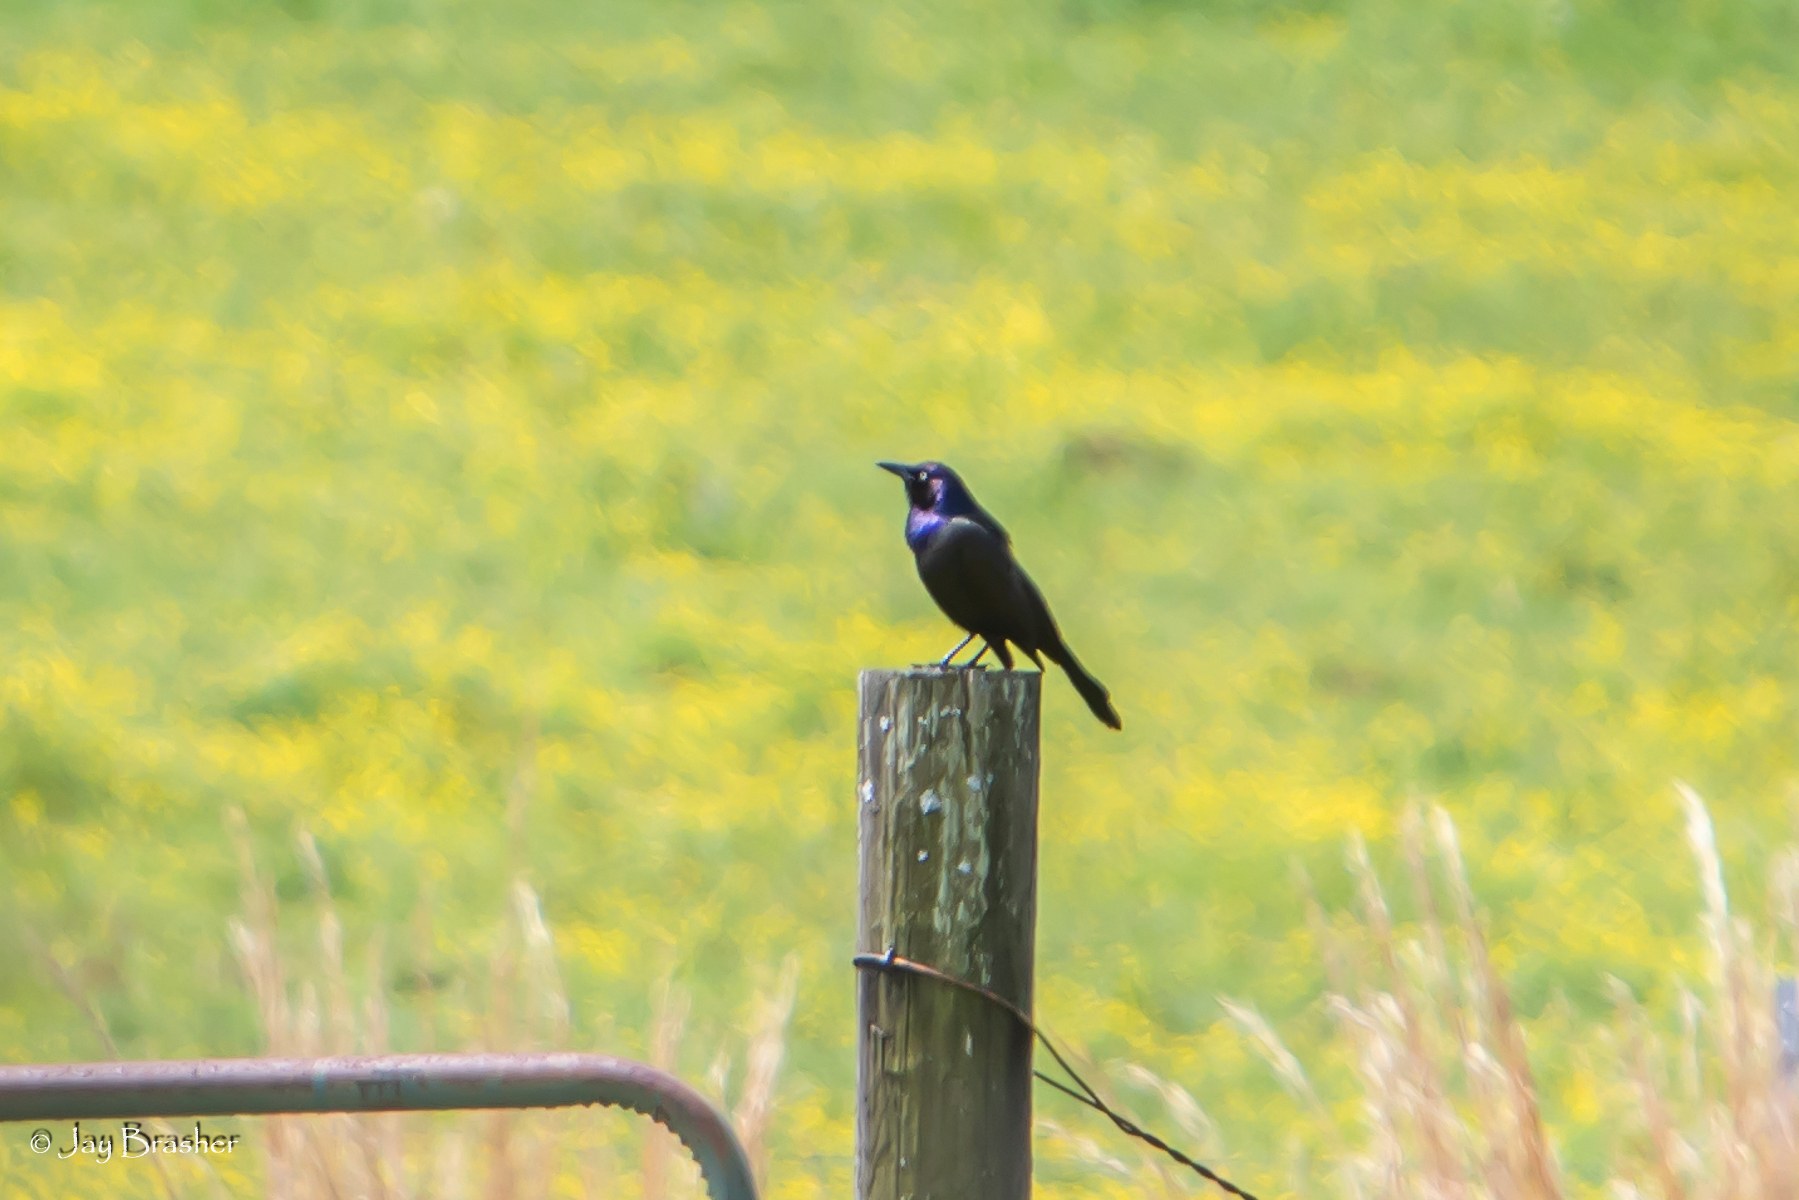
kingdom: Animalia
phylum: Chordata
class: Aves
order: Passeriformes
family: Icteridae
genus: Quiscalus
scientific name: Quiscalus quiscula
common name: Common grackle
